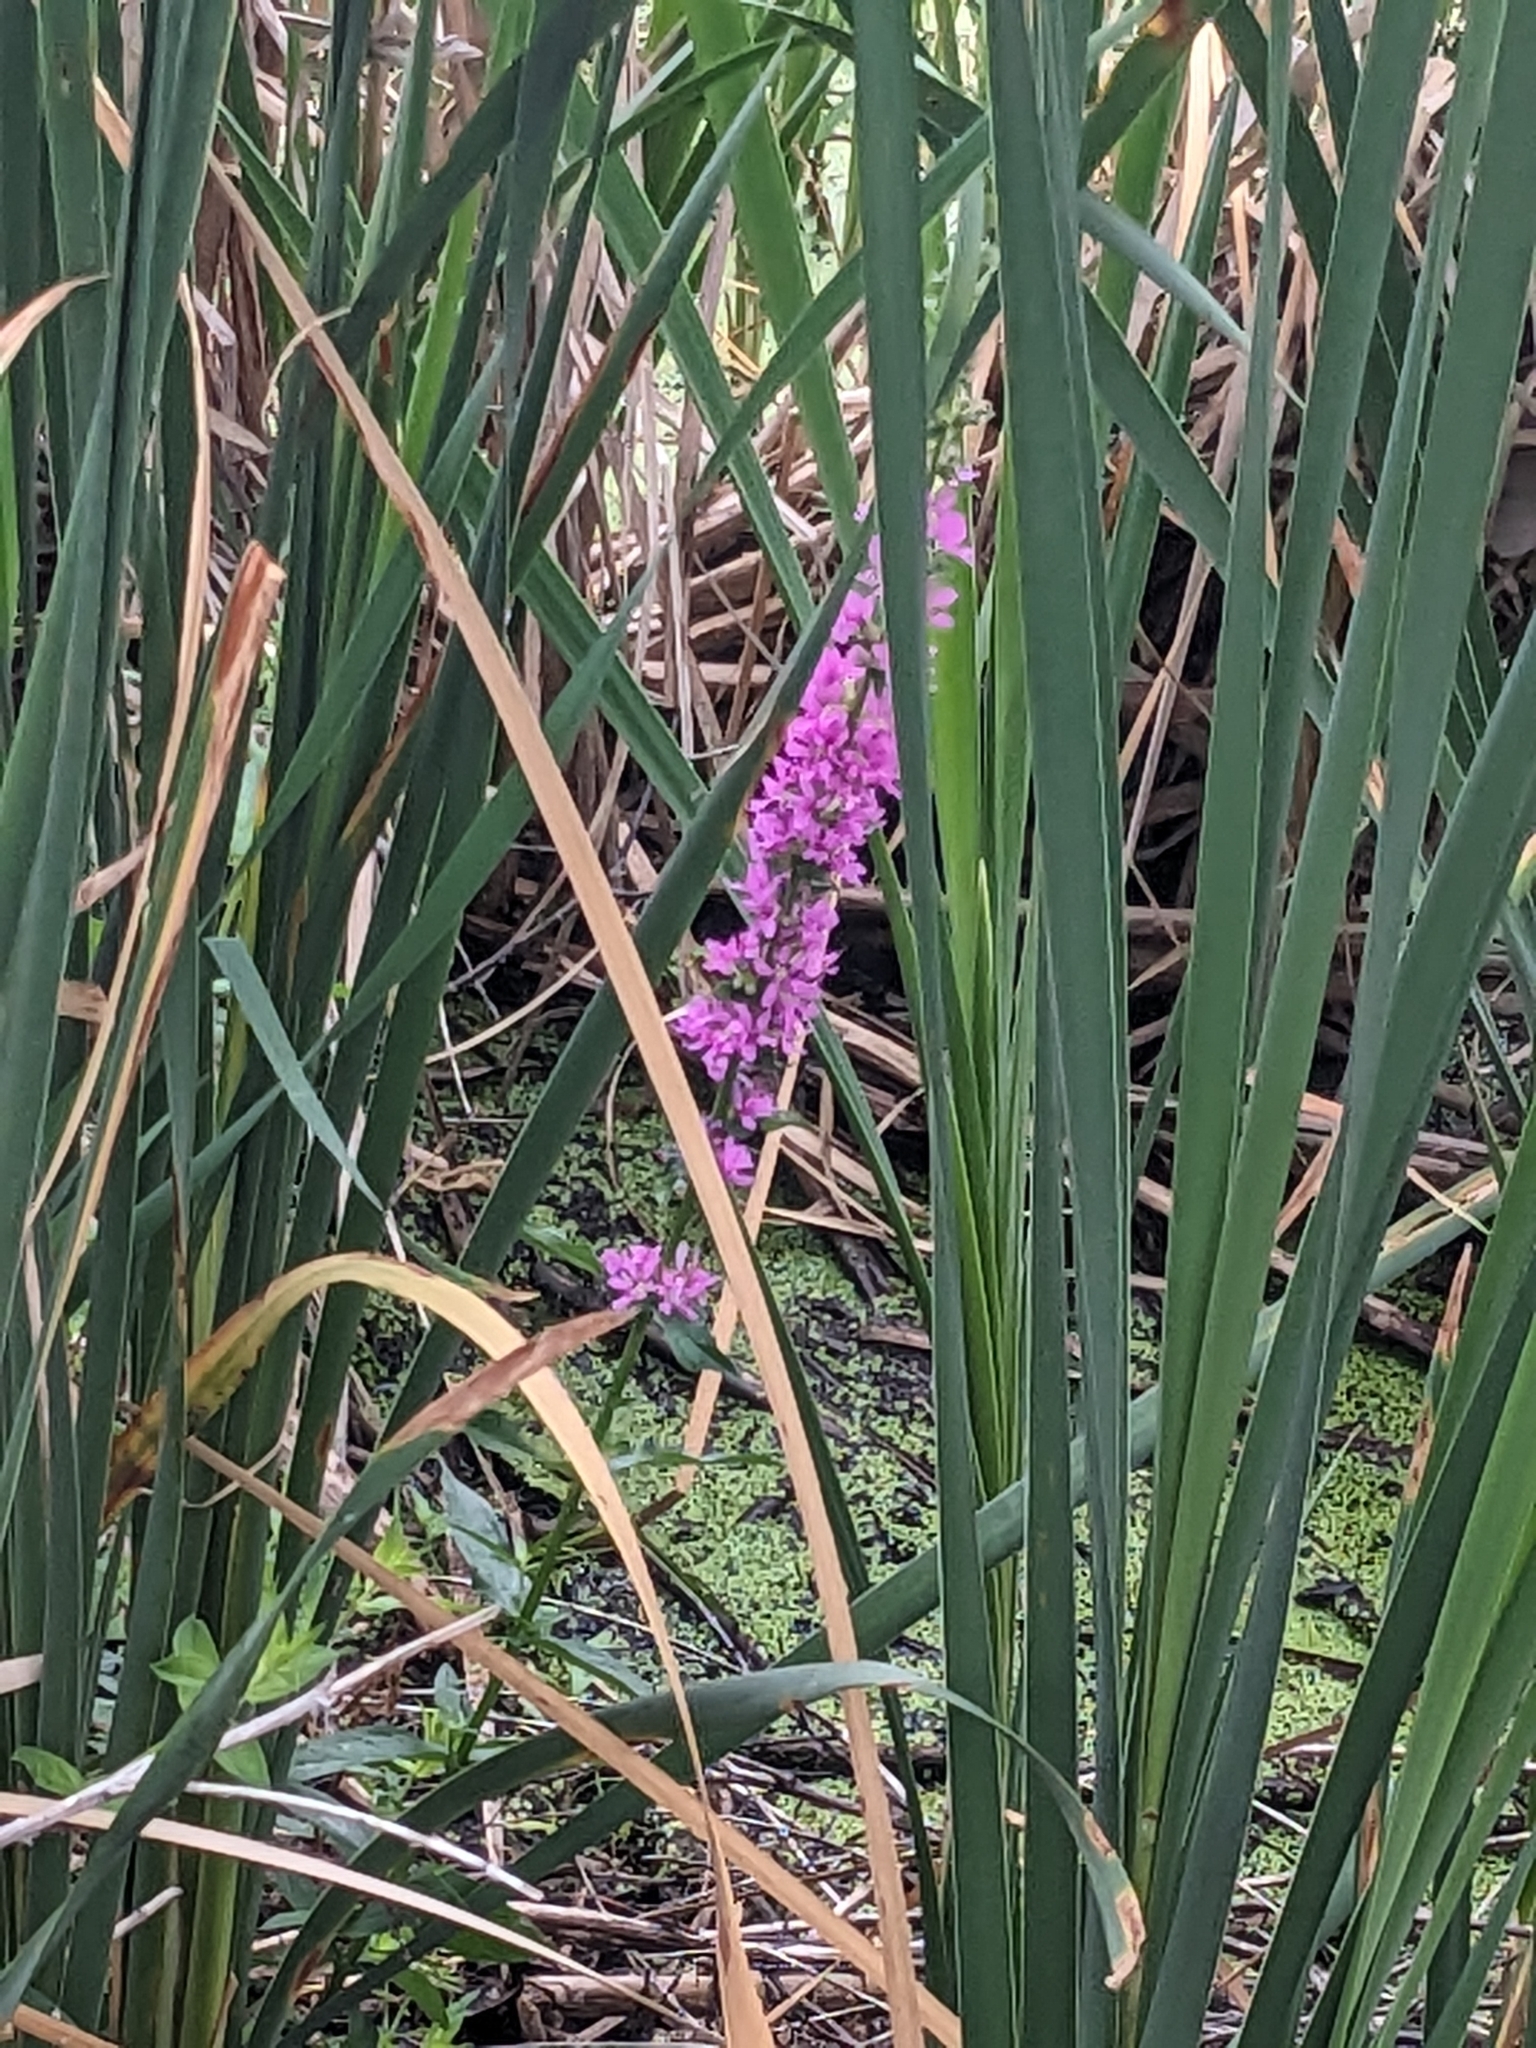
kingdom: Plantae
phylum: Tracheophyta
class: Magnoliopsida
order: Myrtales
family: Lythraceae
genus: Lythrum
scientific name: Lythrum salicaria
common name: Purple loosestrife
